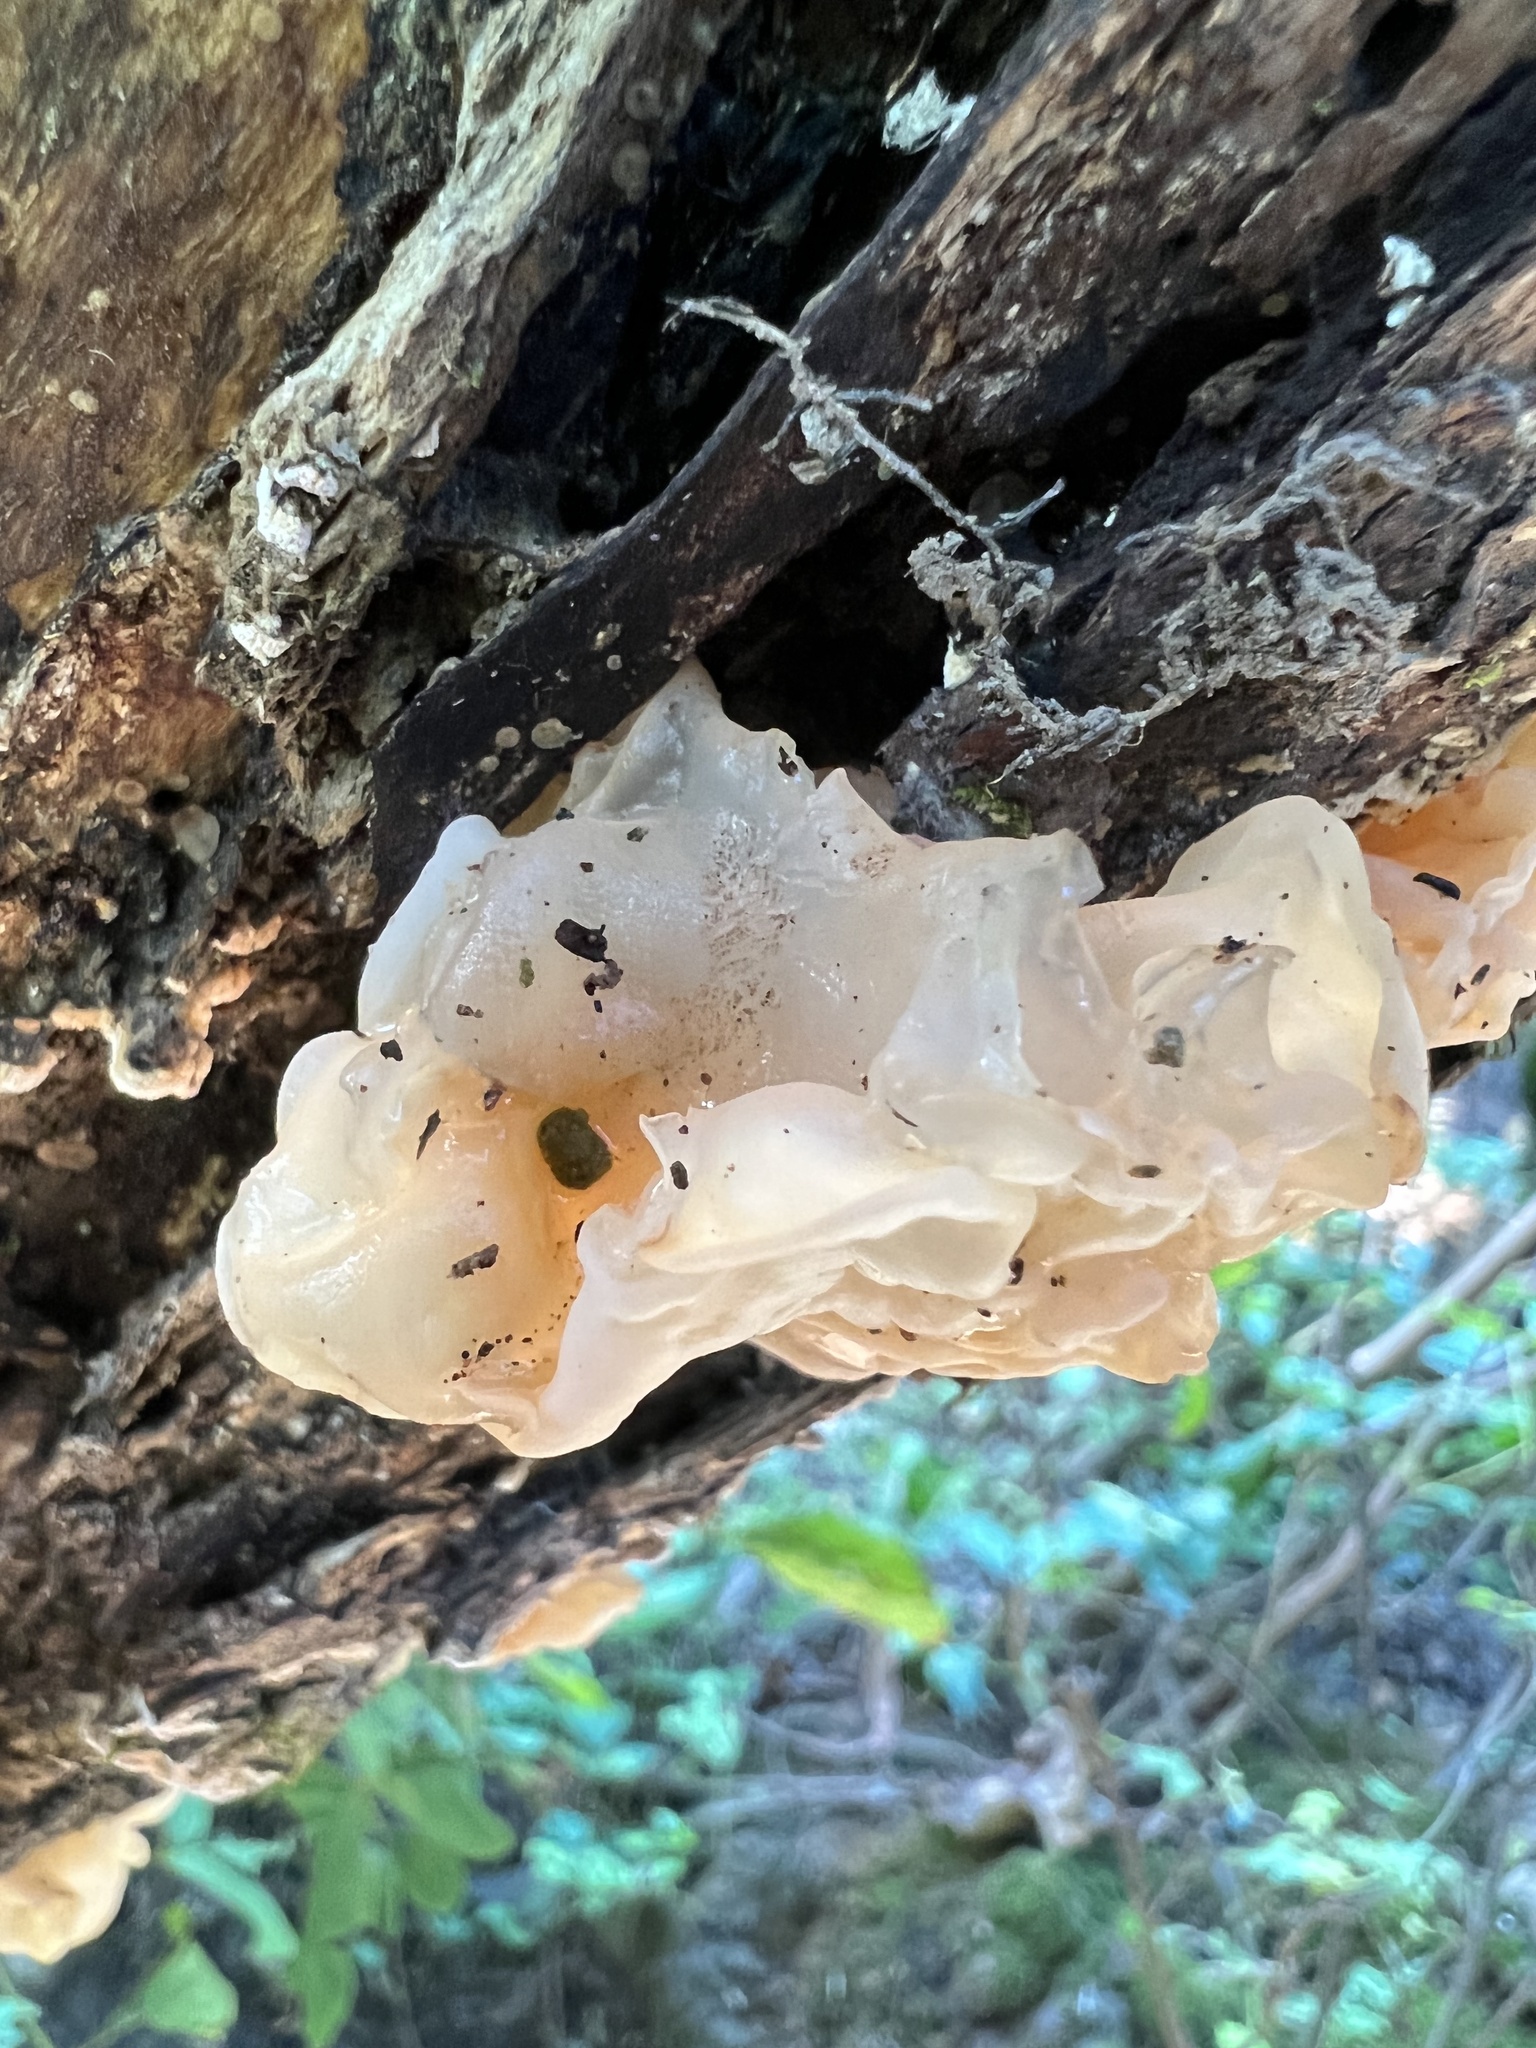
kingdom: Fungi
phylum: Basidiomycota
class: Agaricomycetes
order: Auriculariales
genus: Ductifera
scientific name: Ductifera pululahuana
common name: White jelly fungus
